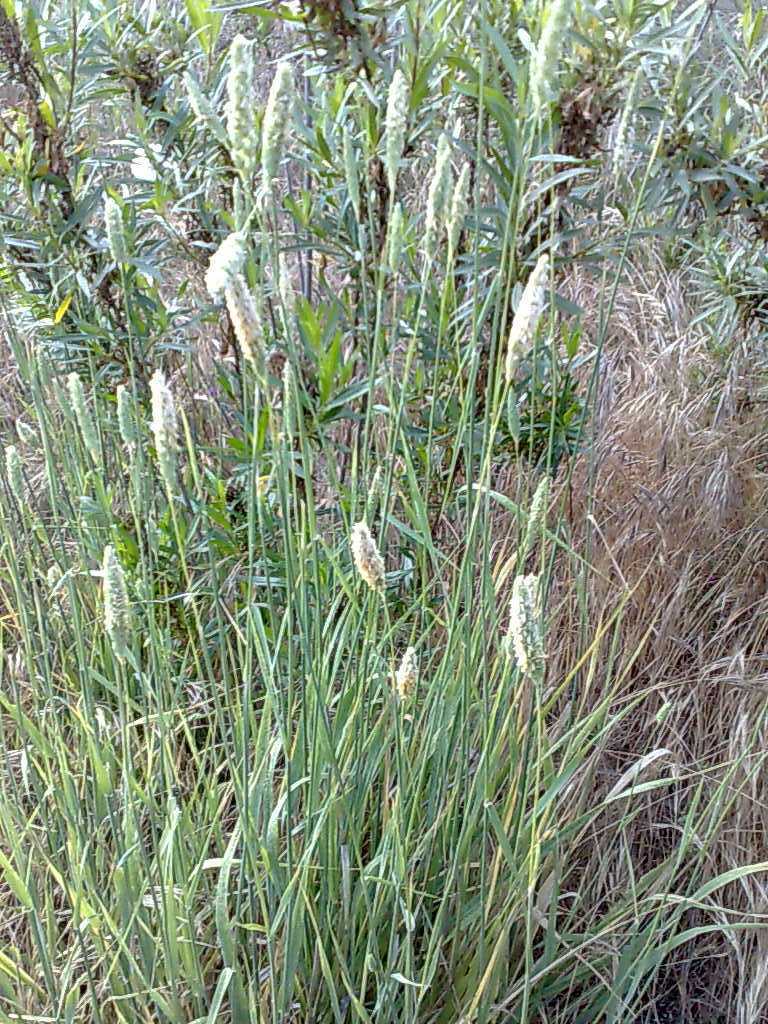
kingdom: Plantae
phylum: Tracheophyta
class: Magnoliopsida
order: Asterales
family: Asteraceae
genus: Baccharis
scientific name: Baccharis salicifolia
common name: Sticky baccharis
